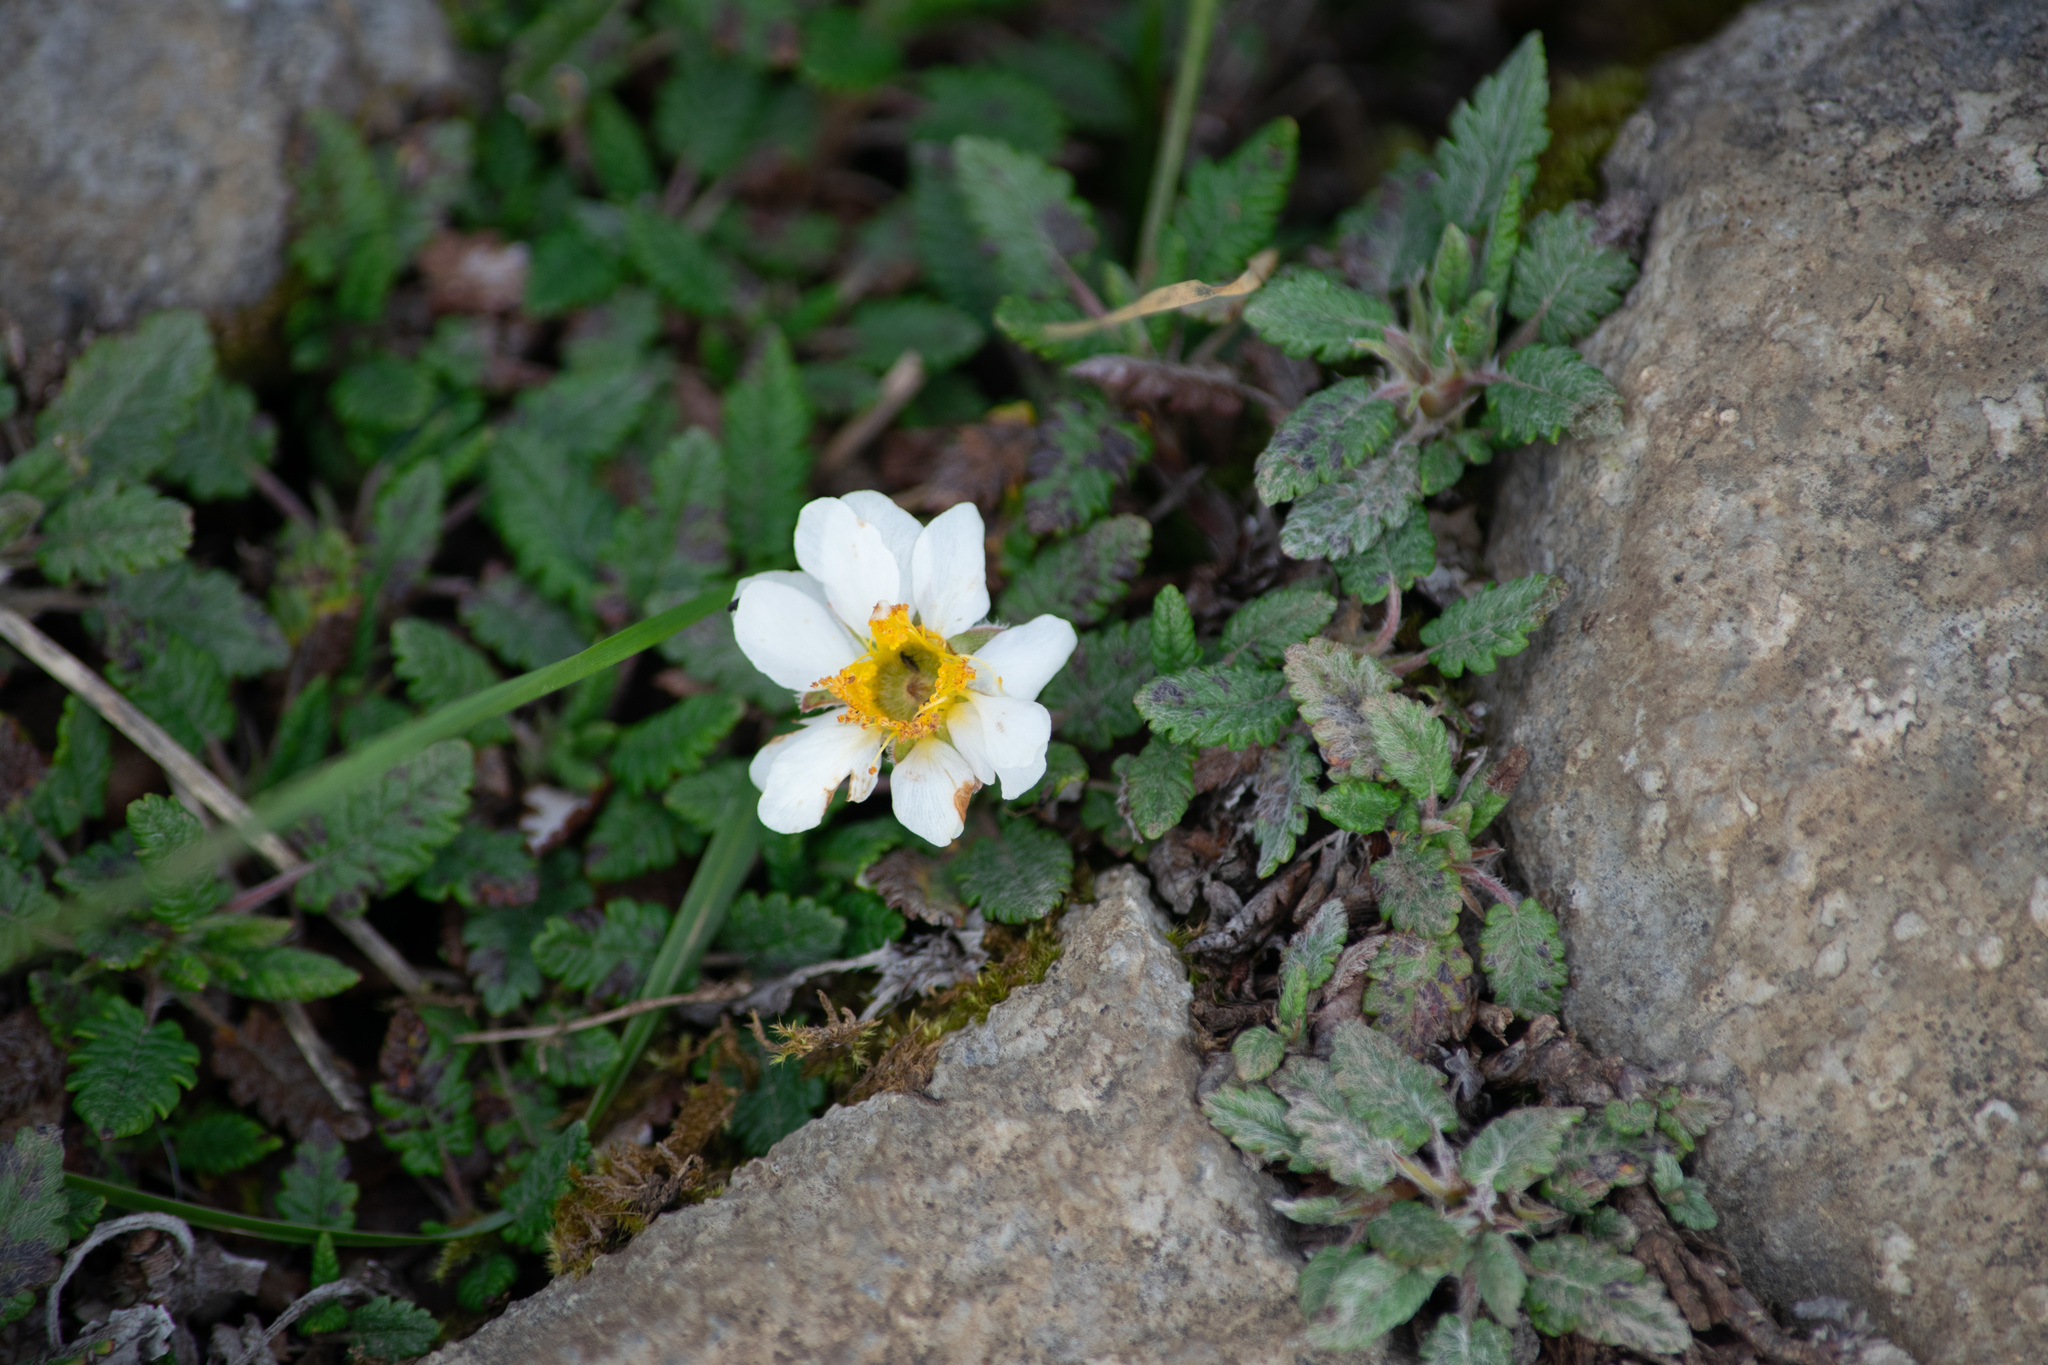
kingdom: Plantae
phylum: Tracheophyta
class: Magnoliopsida
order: Rosales
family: Rosaceae
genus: Dryas
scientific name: Dryas octopetala
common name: Eight-petal mountain-avens
